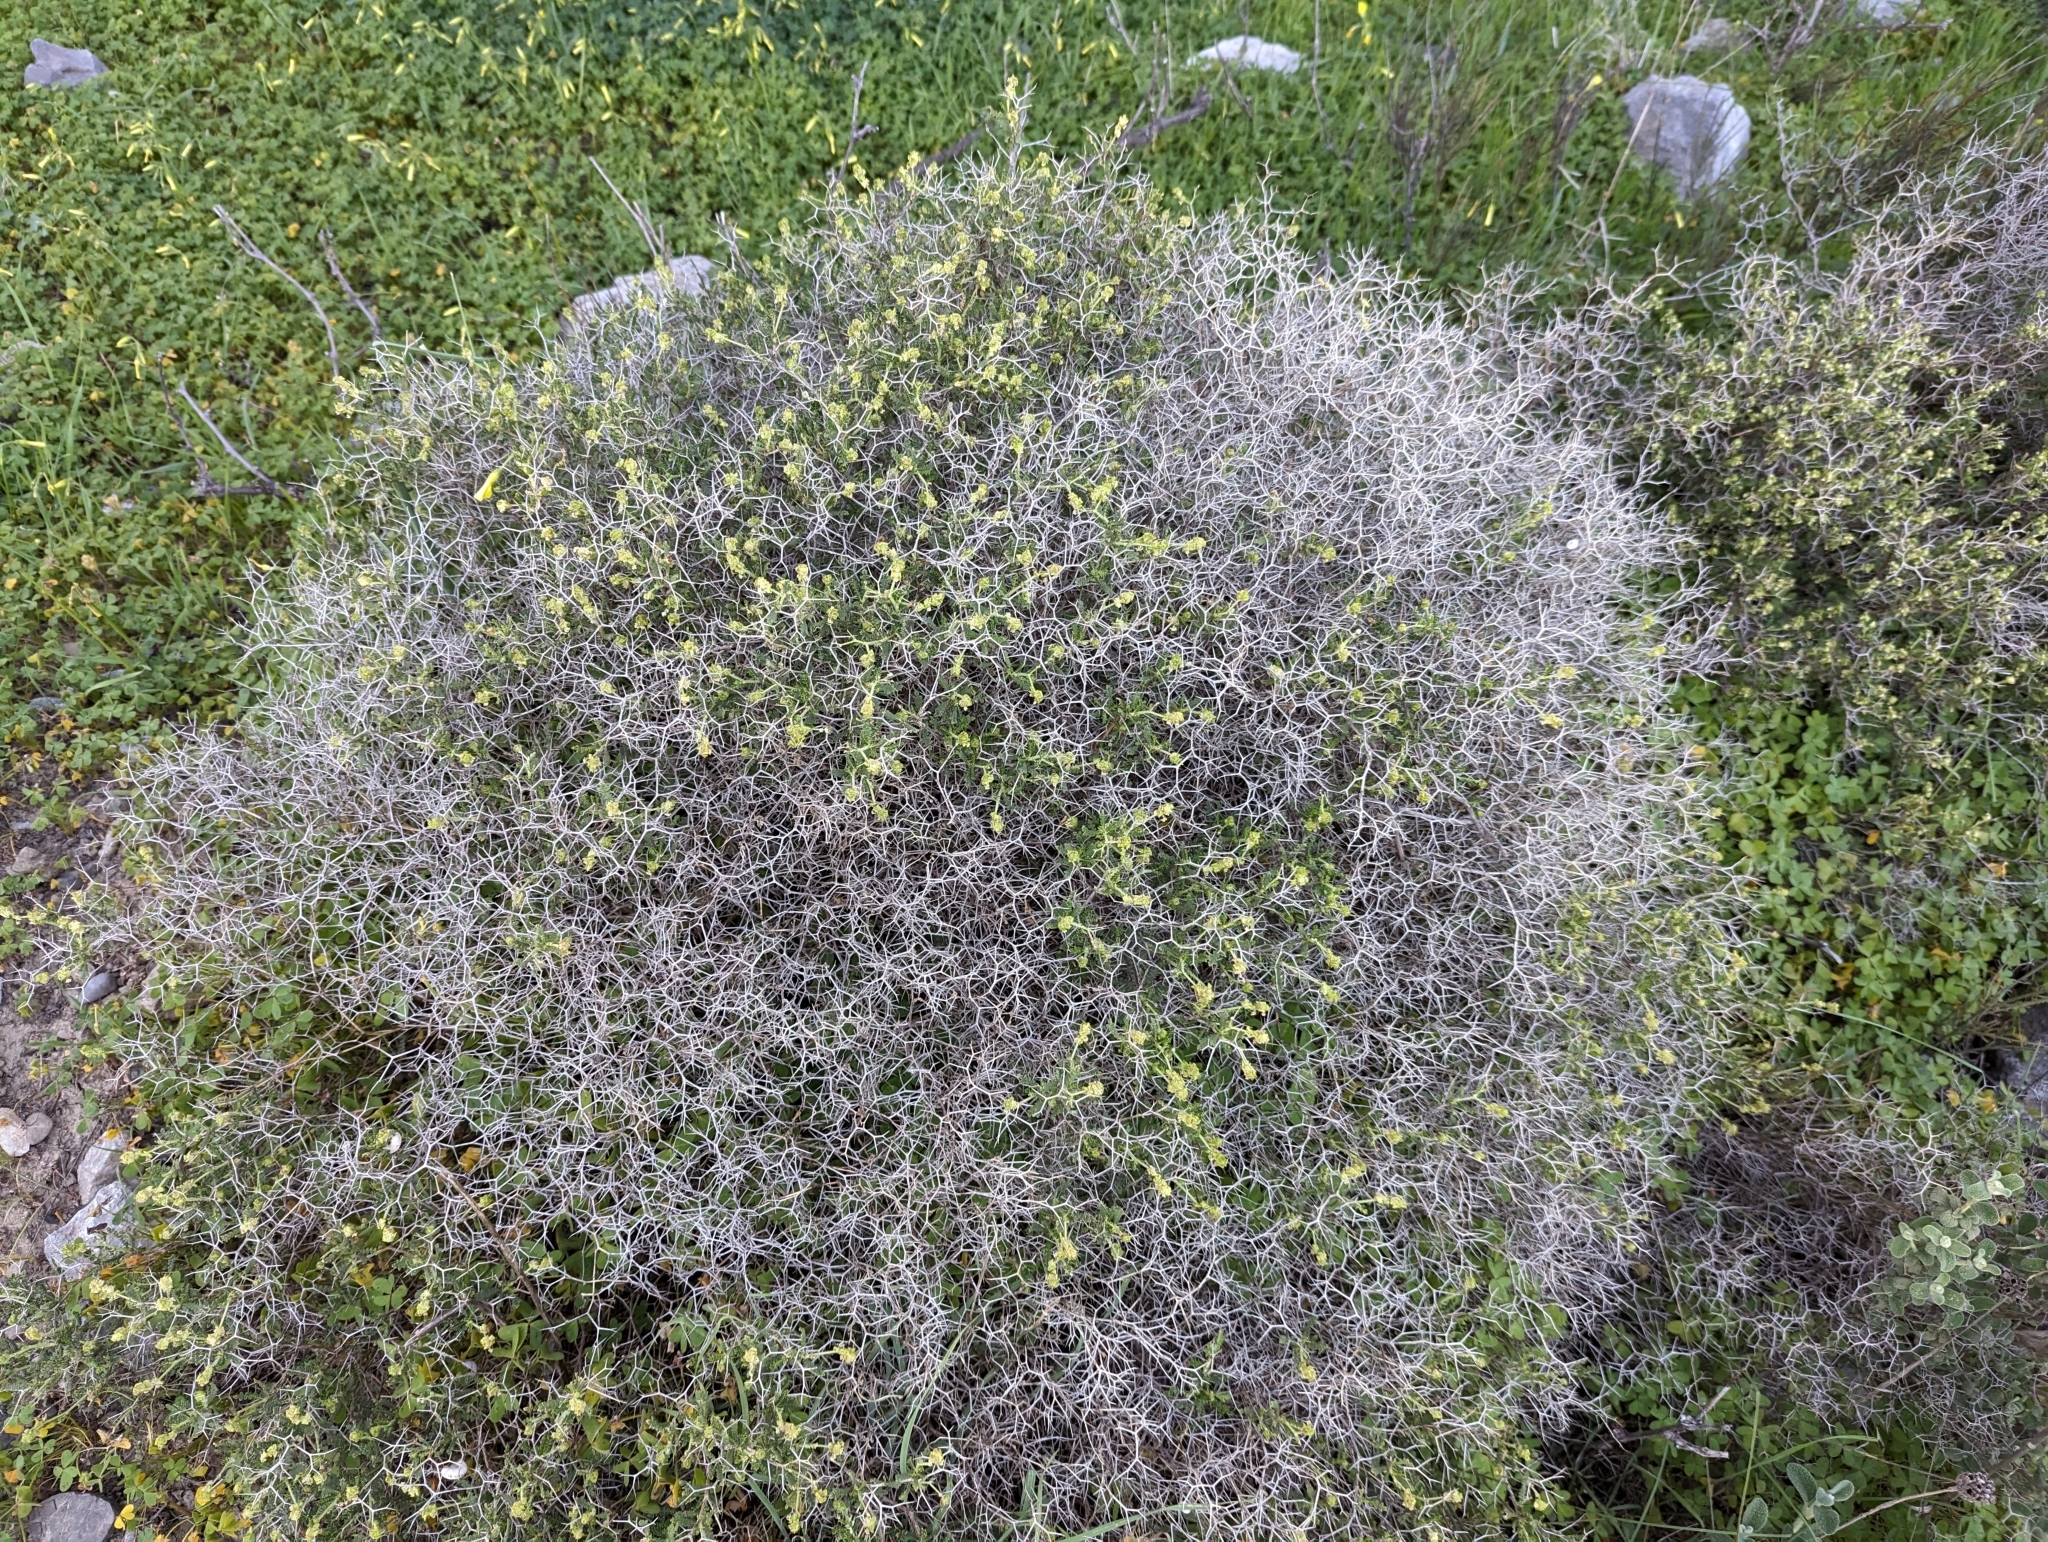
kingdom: Plantae
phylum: Tracheophyta
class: Magnoliopsida
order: Rosales
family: Rosaceae
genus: Sarcopoterium
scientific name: Sarcopoterium spinosum
